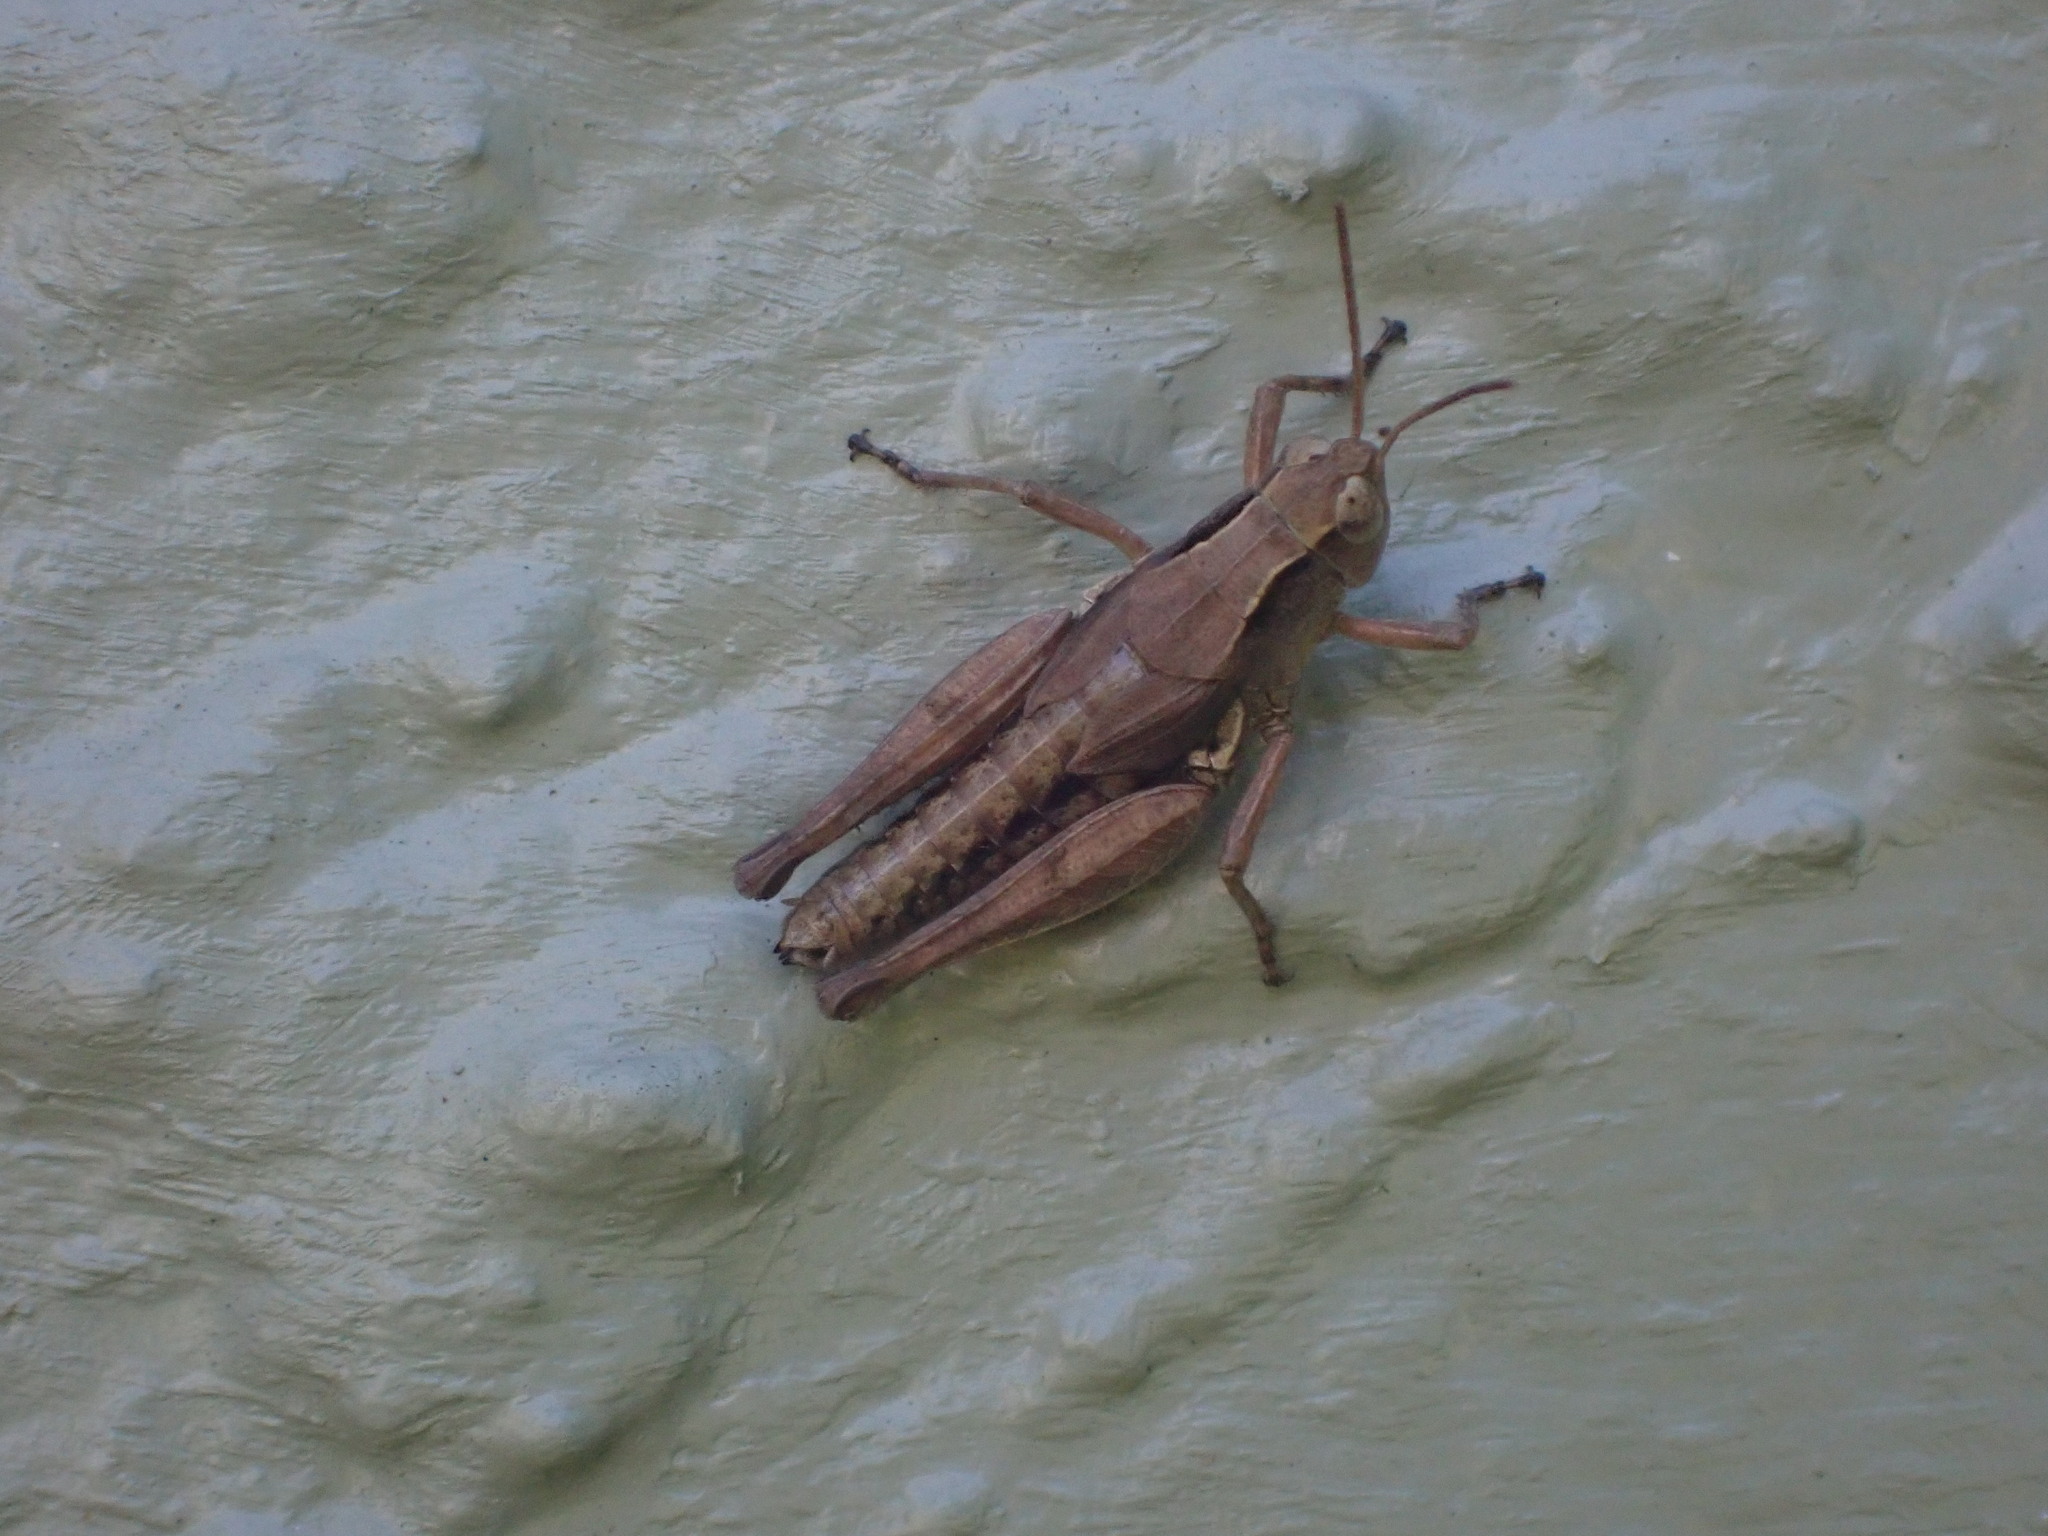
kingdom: Animalia
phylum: Arthropoda
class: Insecta
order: Orthoptera
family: Acrididae
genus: Phaulacridium
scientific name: Phaulacridium marginale
